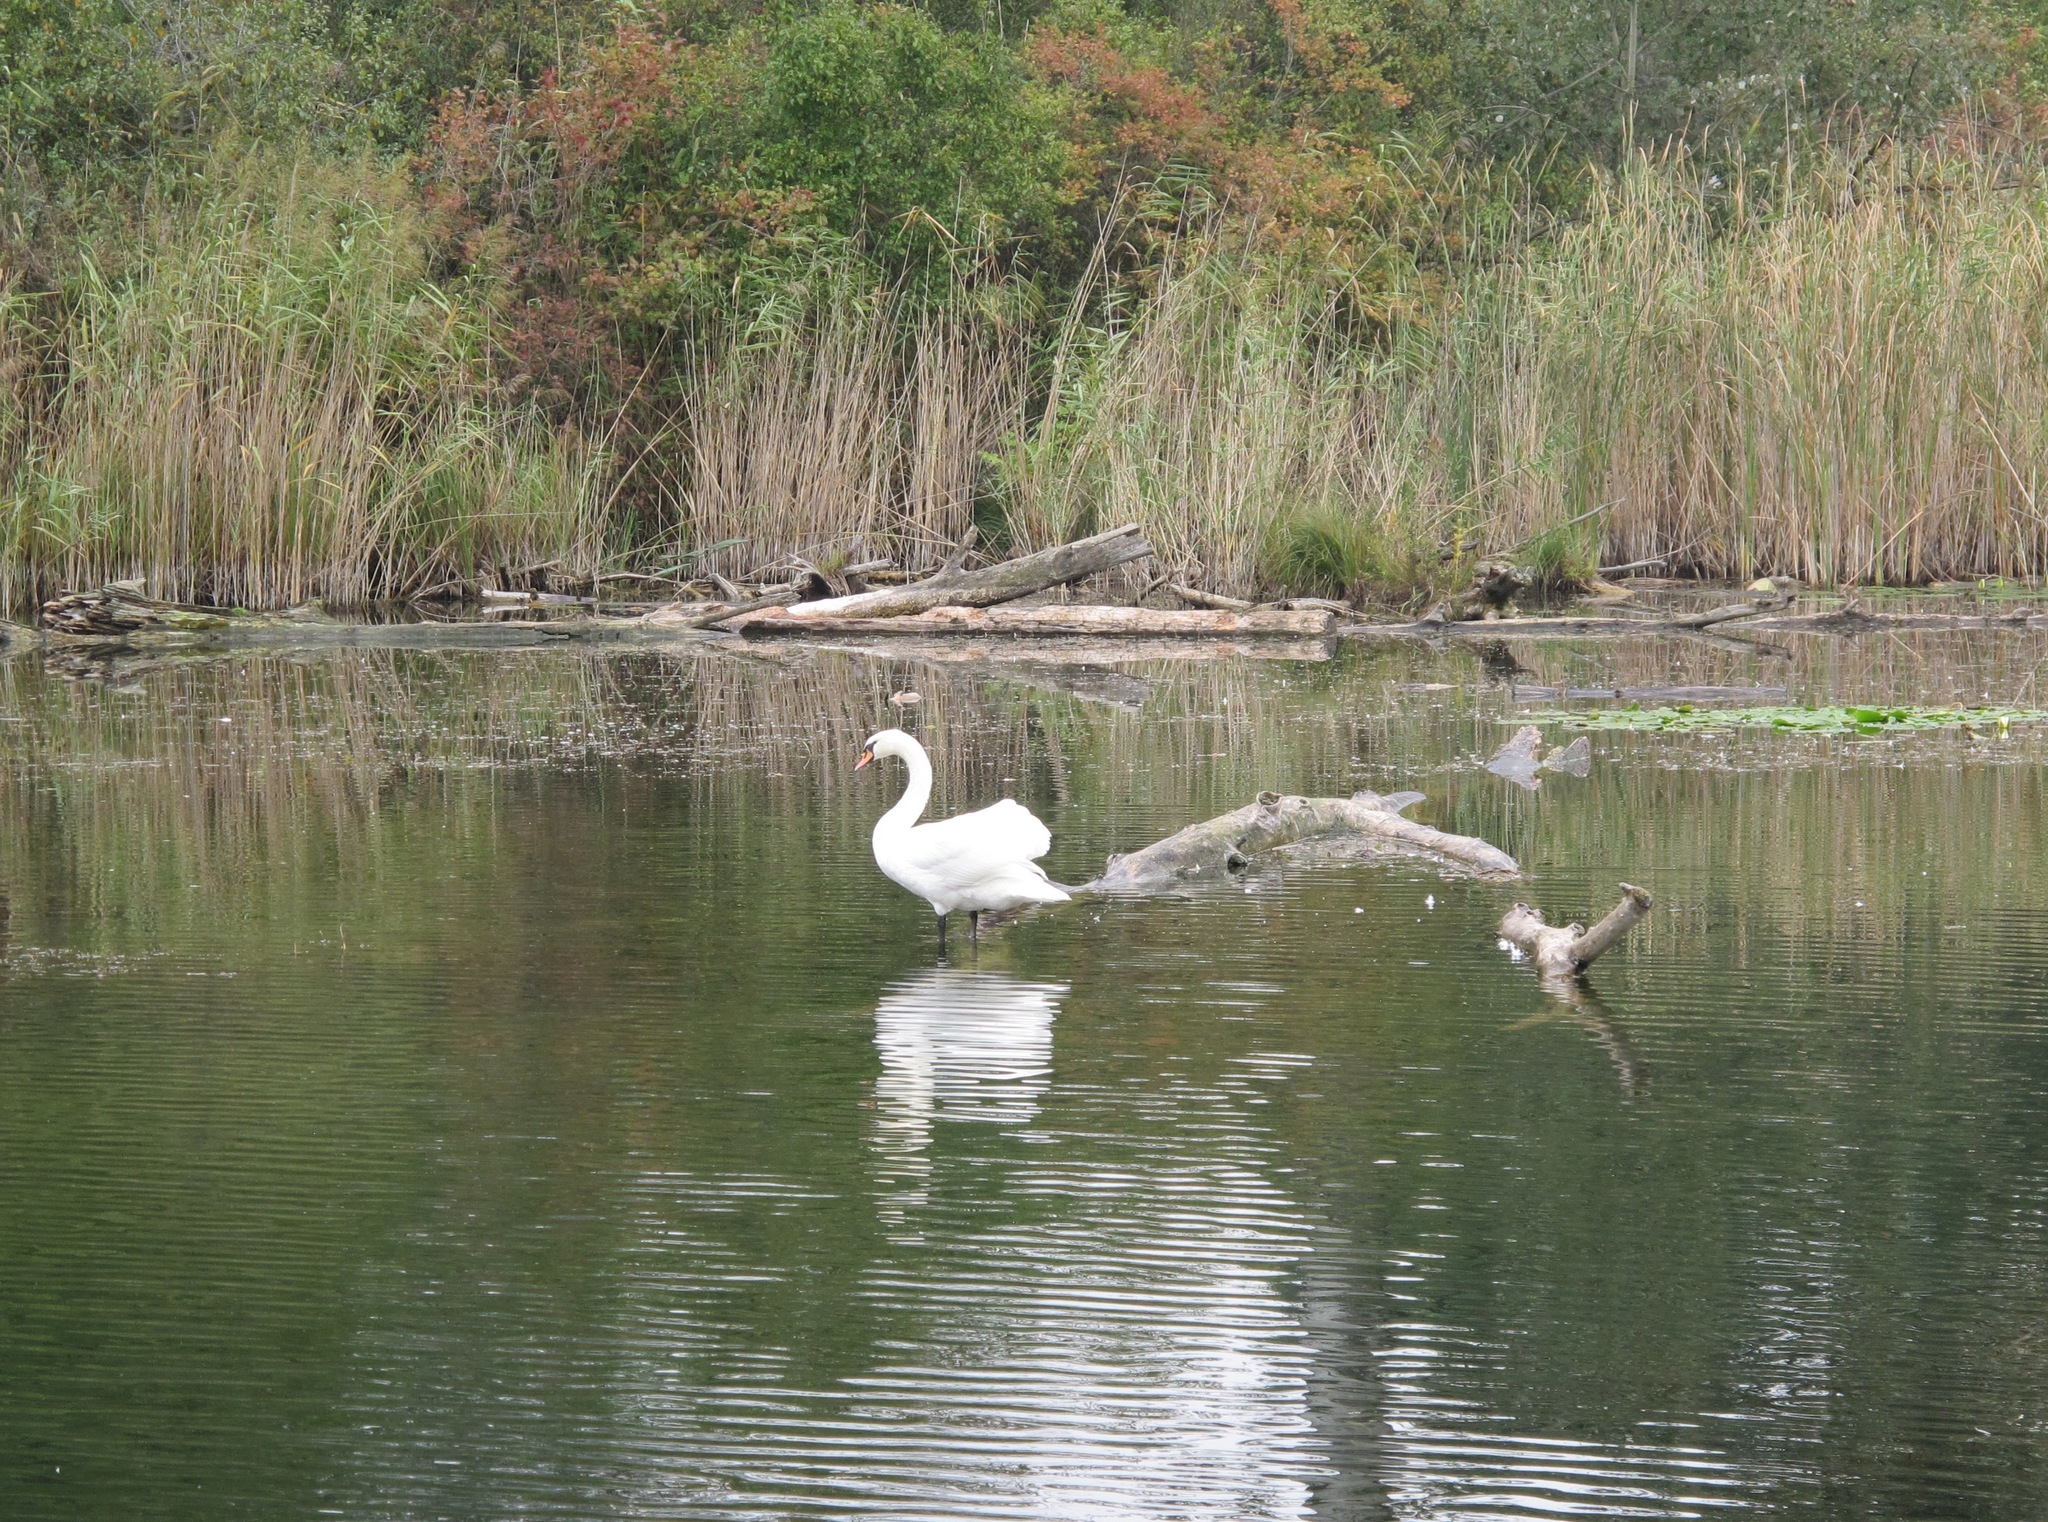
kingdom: Animalia
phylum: Chordata
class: Aves
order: Anseriformes
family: Anatidae
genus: Cygnus
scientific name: Cygnus olor
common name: Mute swan
